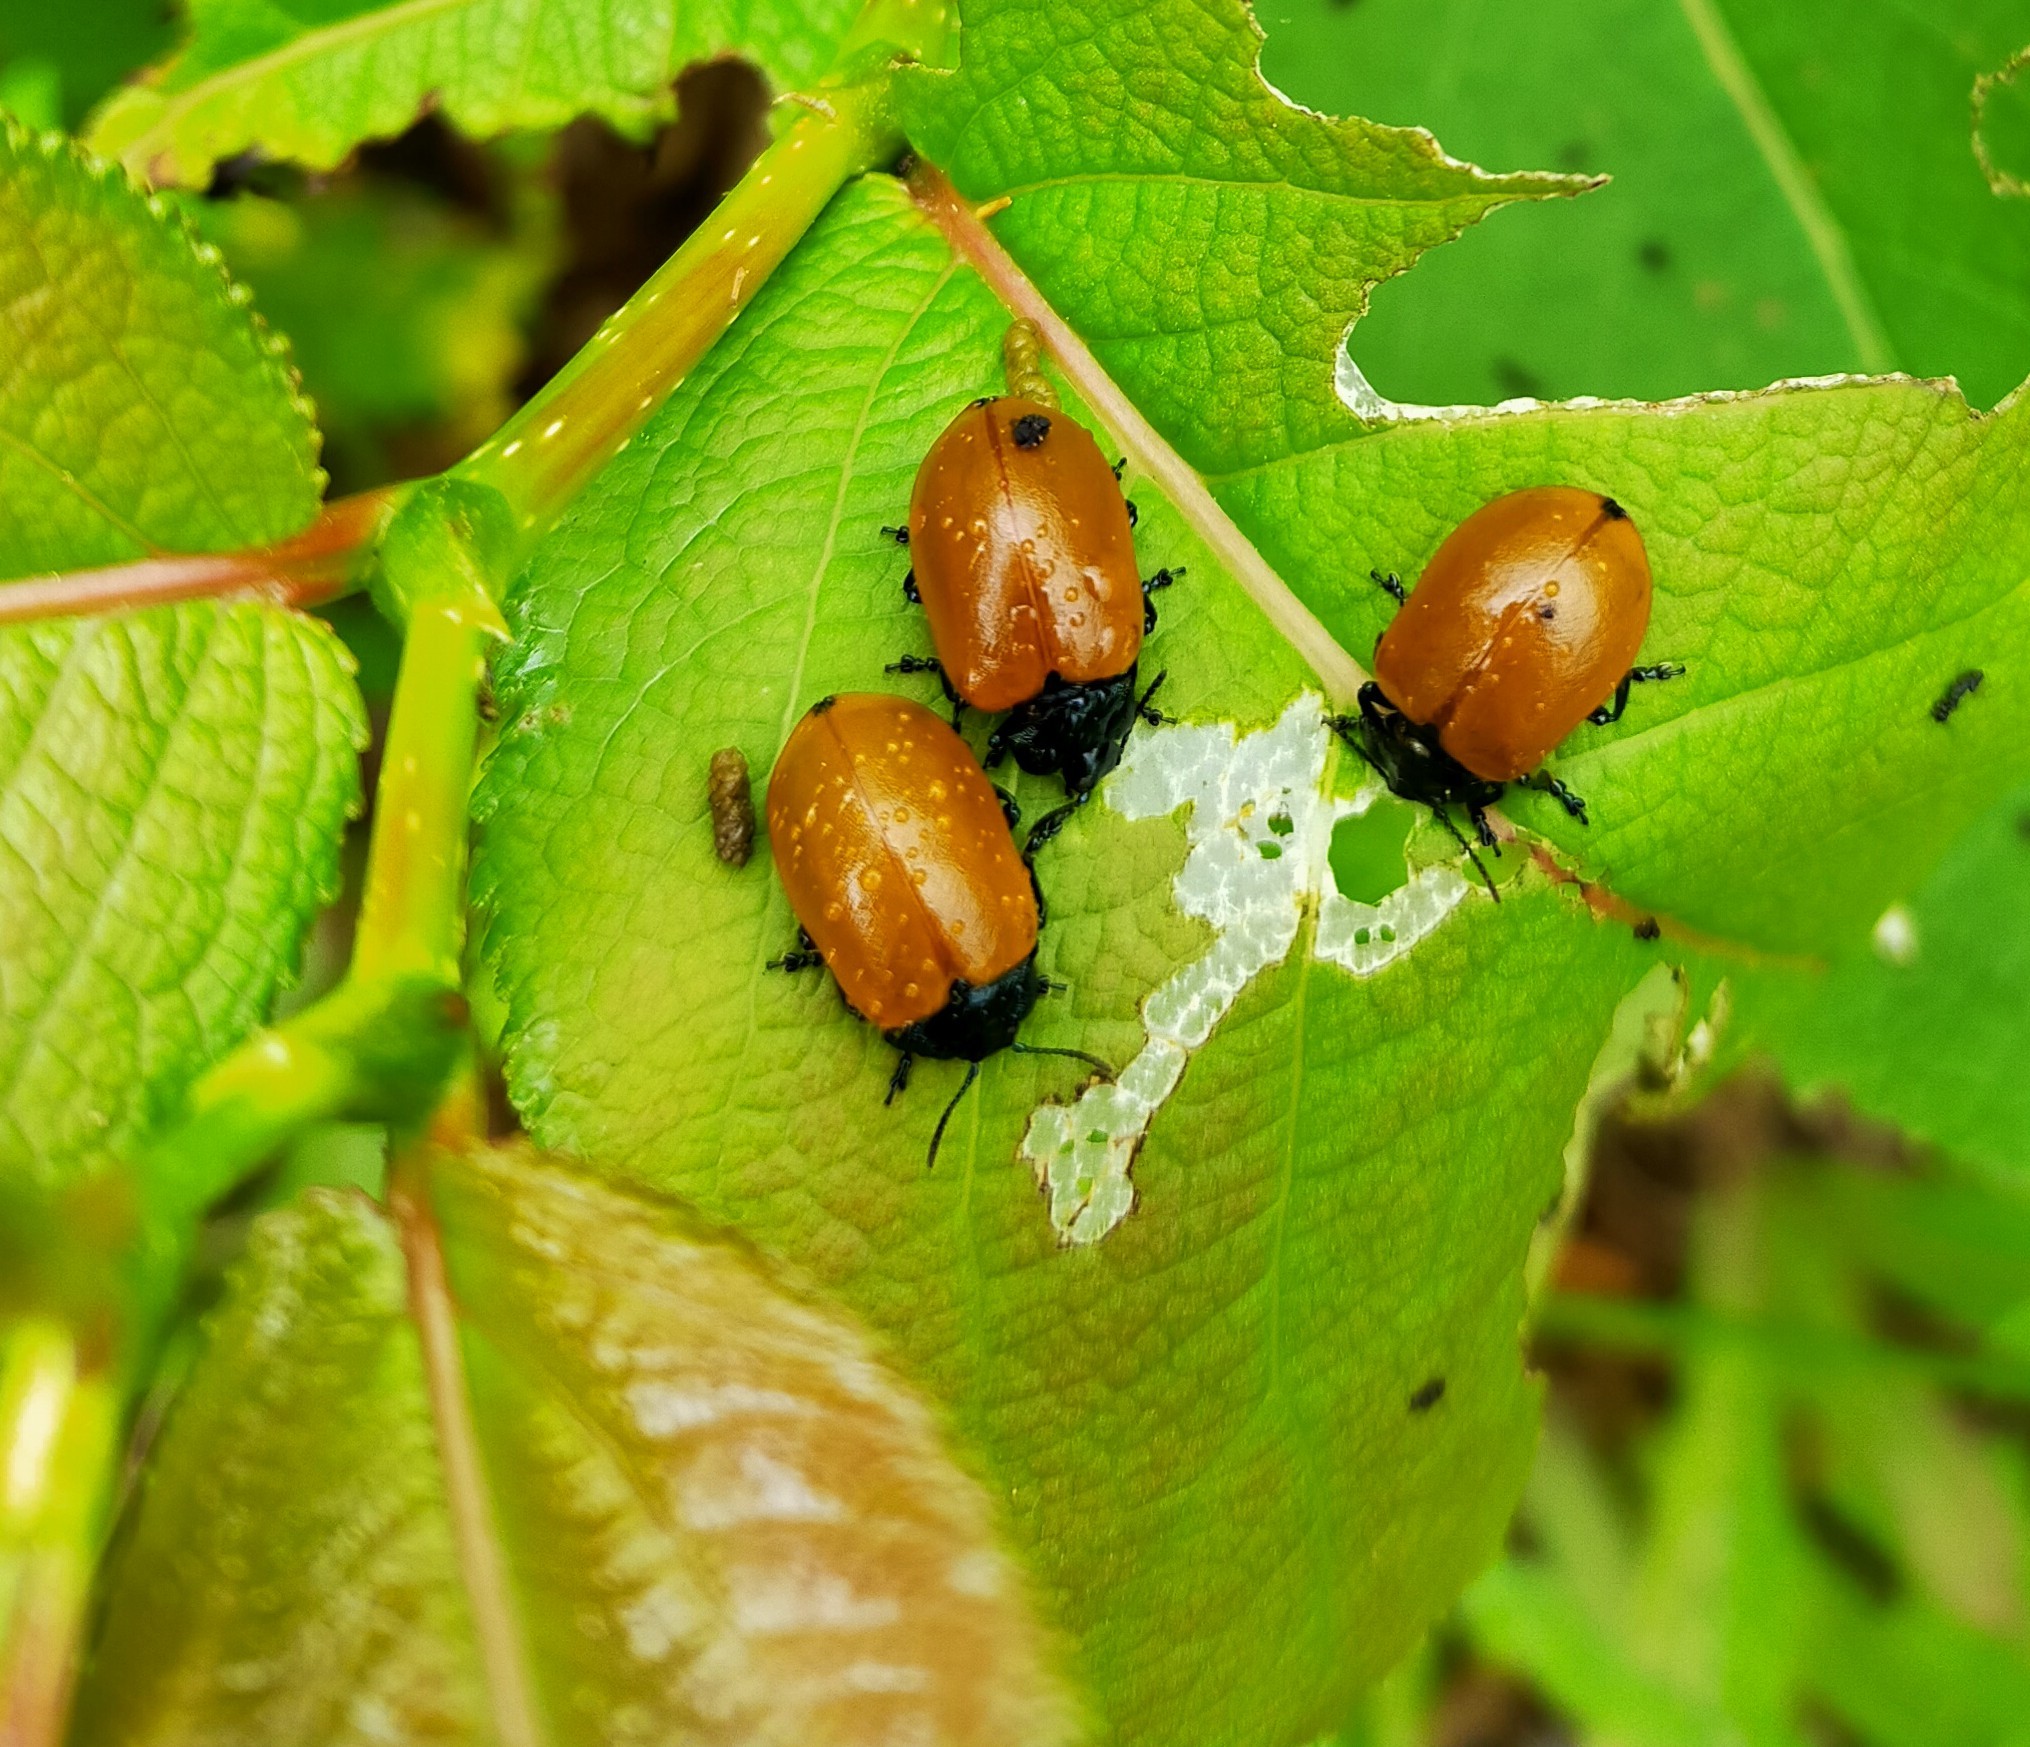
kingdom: Animalia
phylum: Arthropoda
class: Insecta
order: Coleoptera
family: Chrysomelidae
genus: Chrysomela
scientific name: Chrysomela populi
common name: Red poplar leaf beetle
